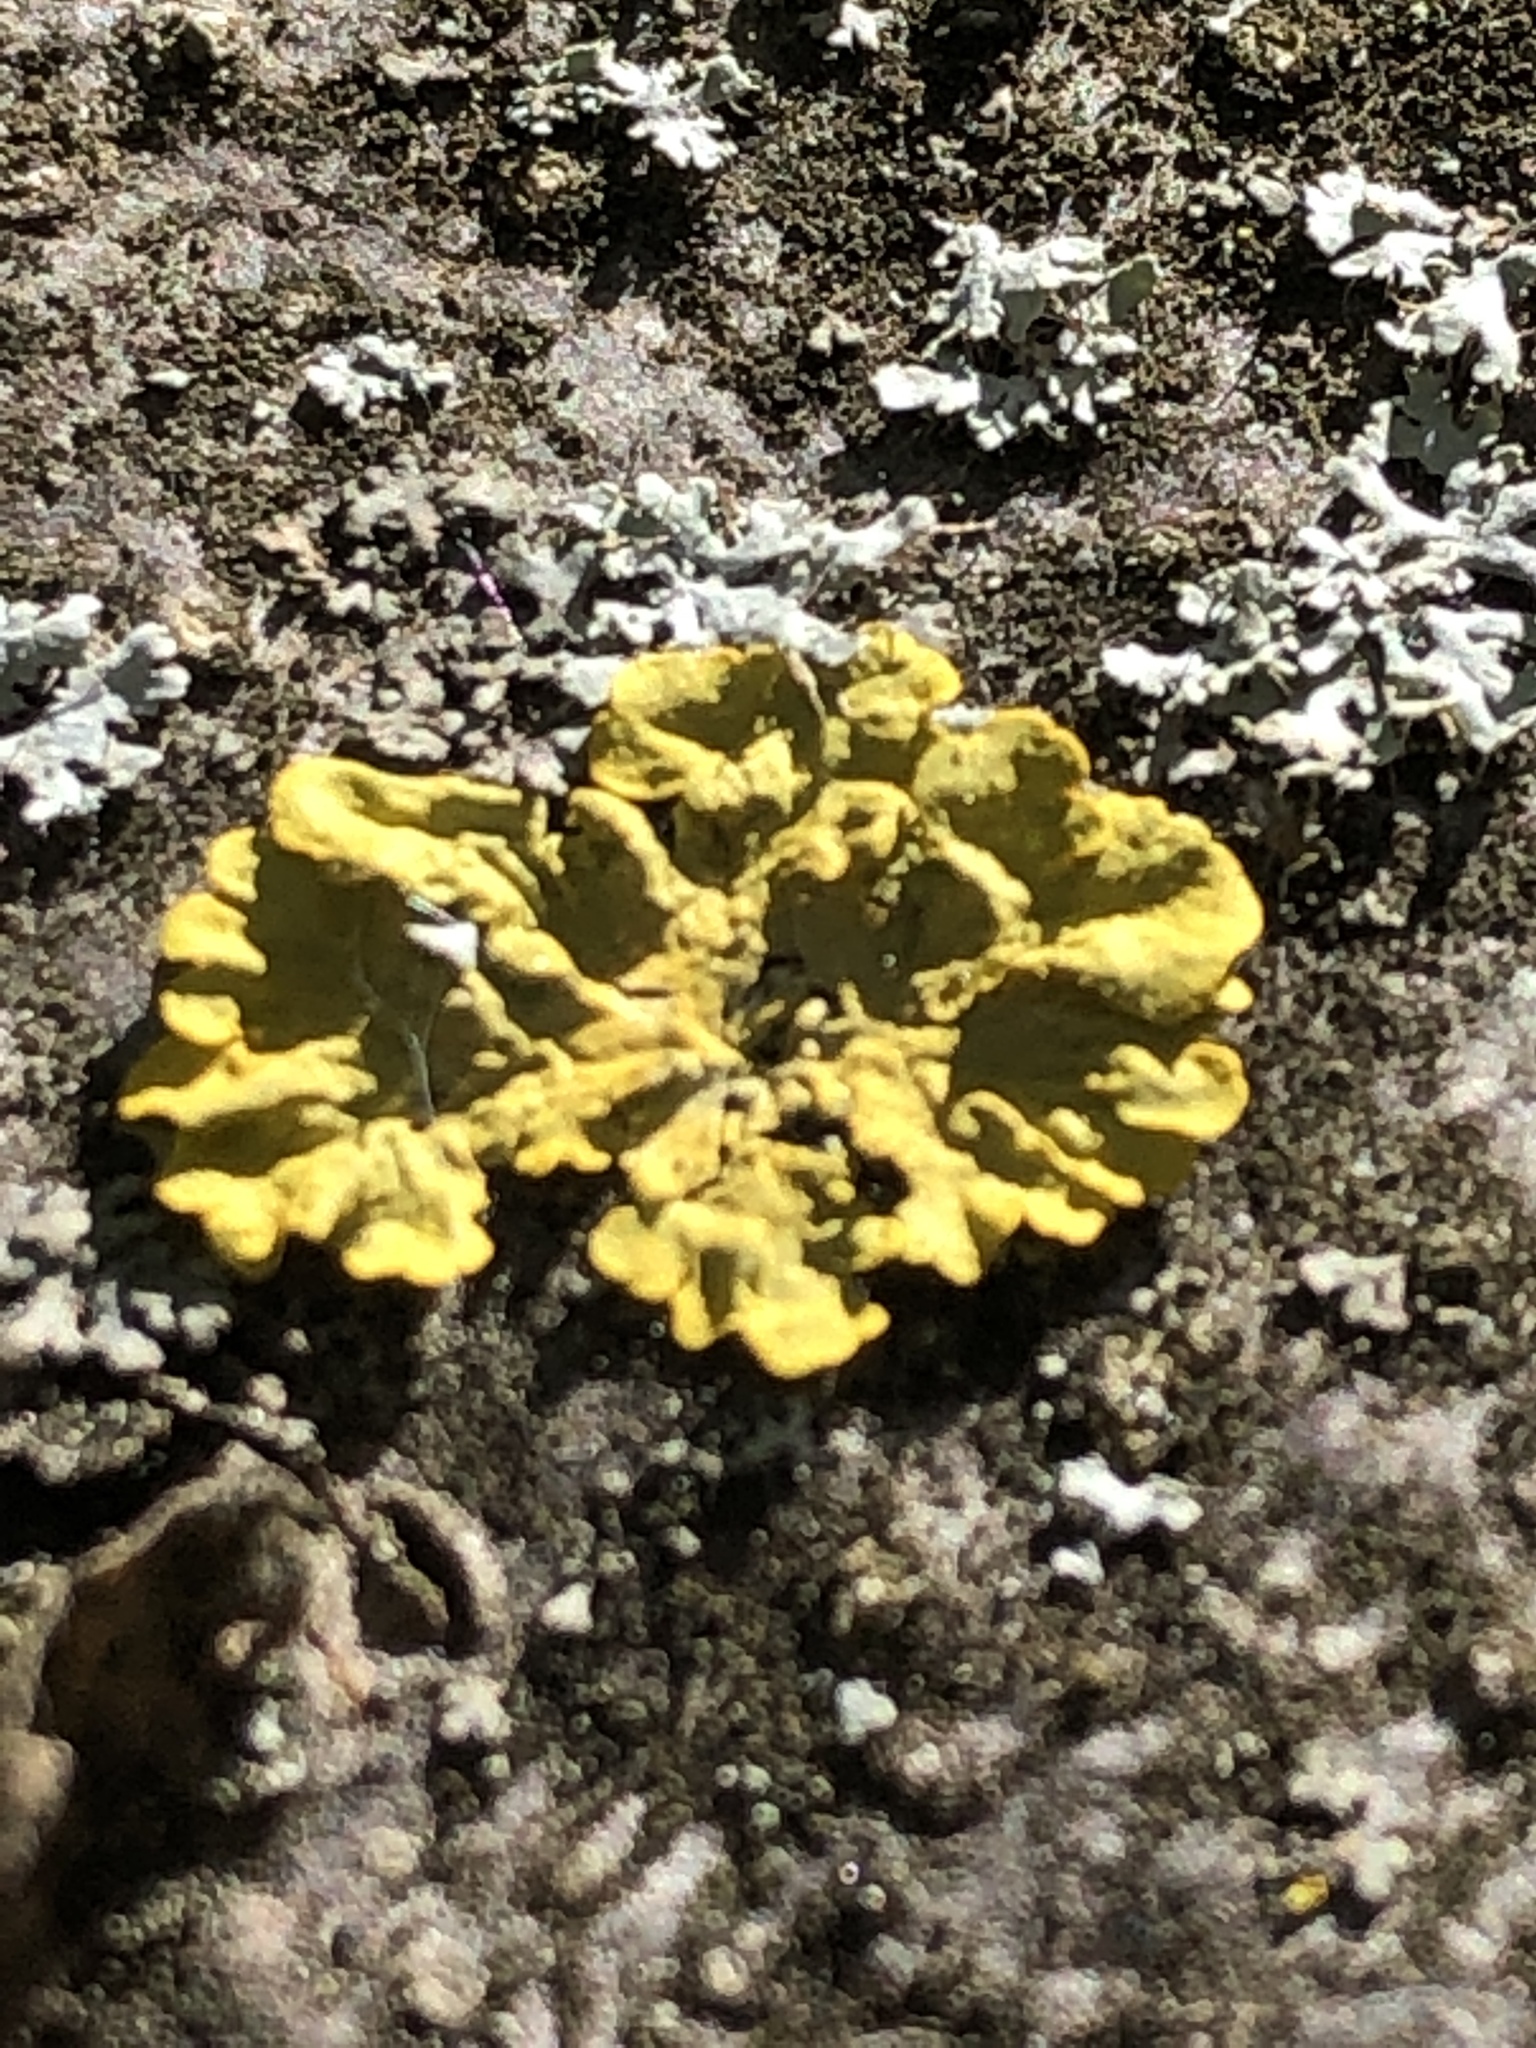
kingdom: Fungi
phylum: Ascomycota
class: Lecanoromycetes
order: Teloschistales
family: Teloschistaceae
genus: Xanthoria
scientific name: Xanthoria parietina
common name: Common orange lichen
